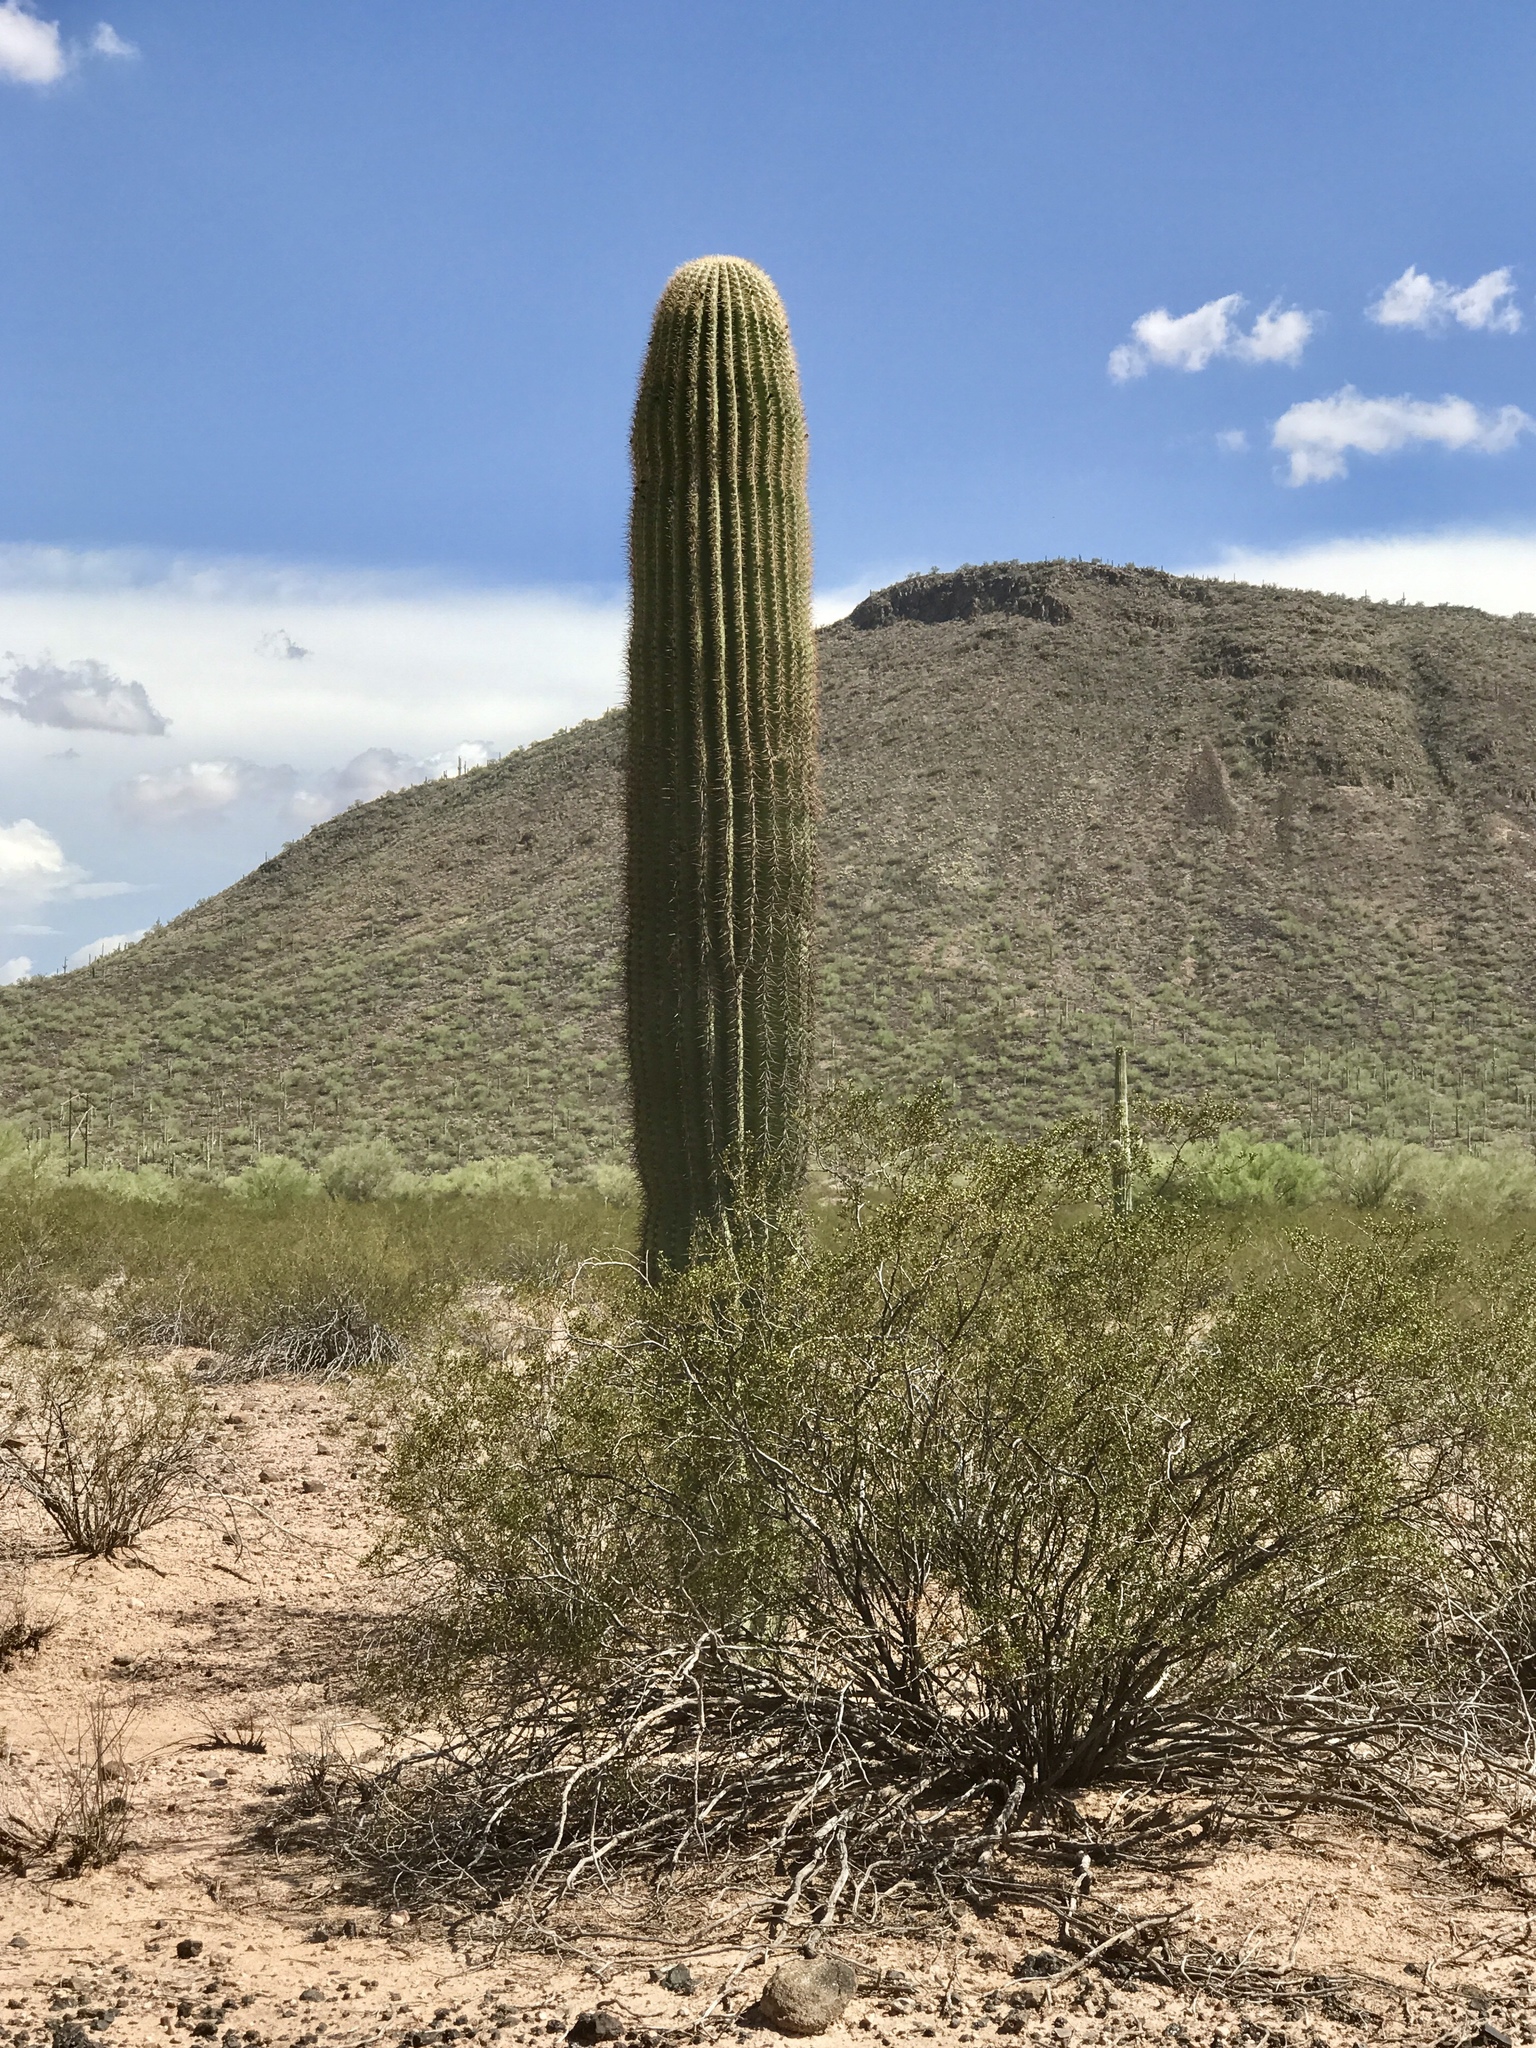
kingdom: Plantae
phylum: Tracheophyta
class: Magnoliopsida
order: Caryophyllales
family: Cactaceae
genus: Carnegiea
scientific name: Carnegiea gigantea
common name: Saguaro
